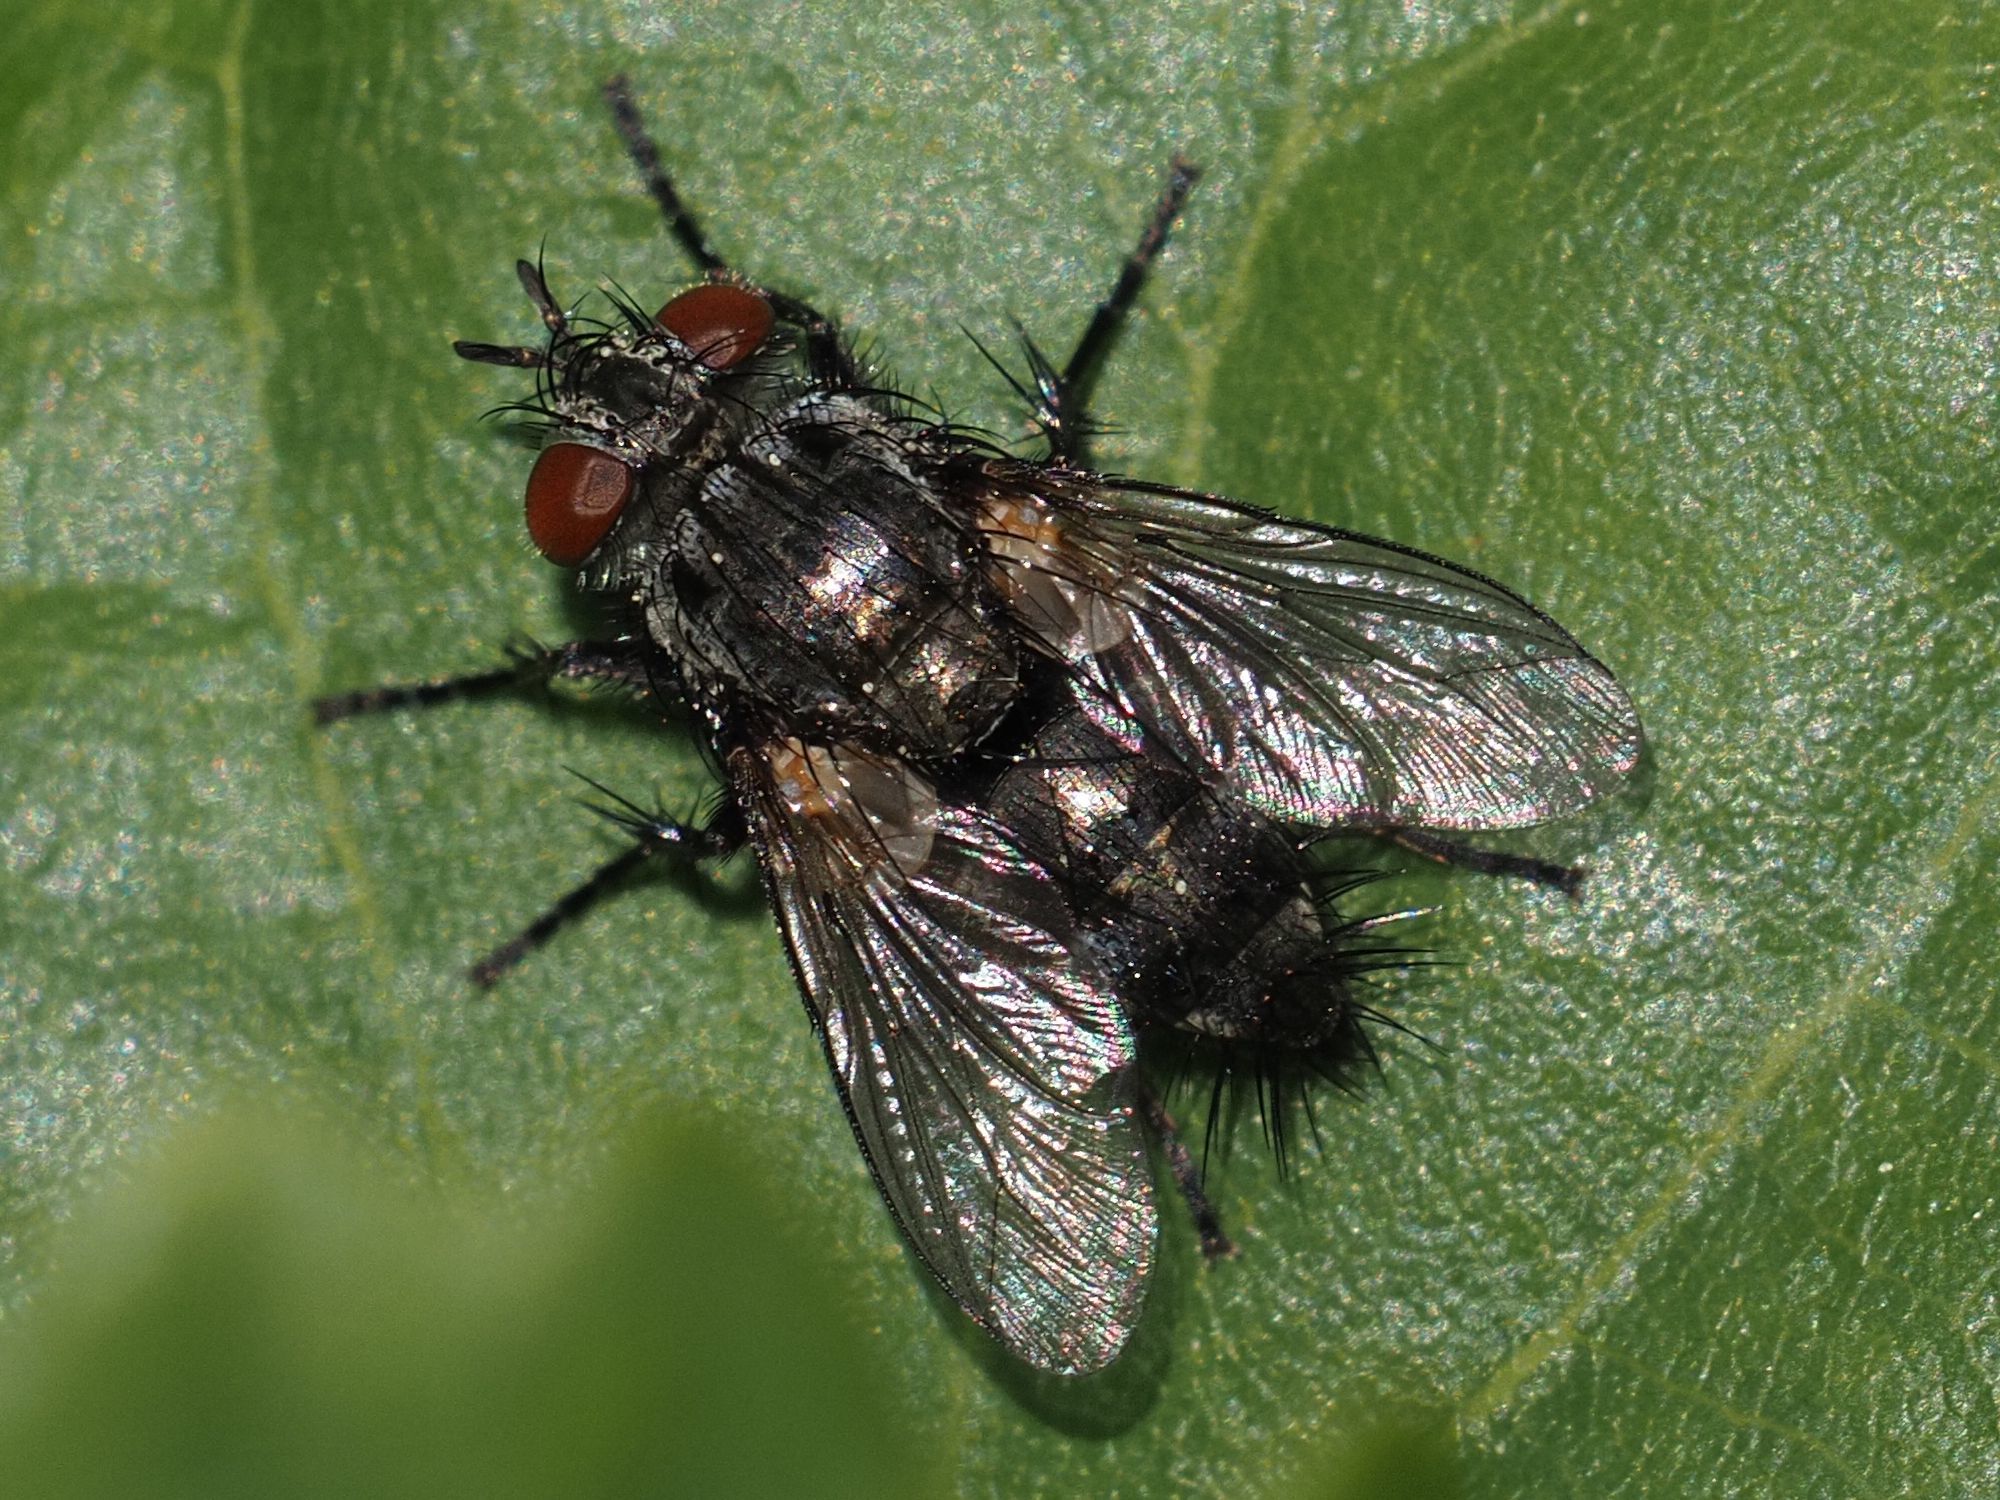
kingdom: Animalia
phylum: Arthropoda
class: Insecta
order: Diptera
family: Tachinidae
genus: Voria
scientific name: Voria ruralis
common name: Parasitic fly
